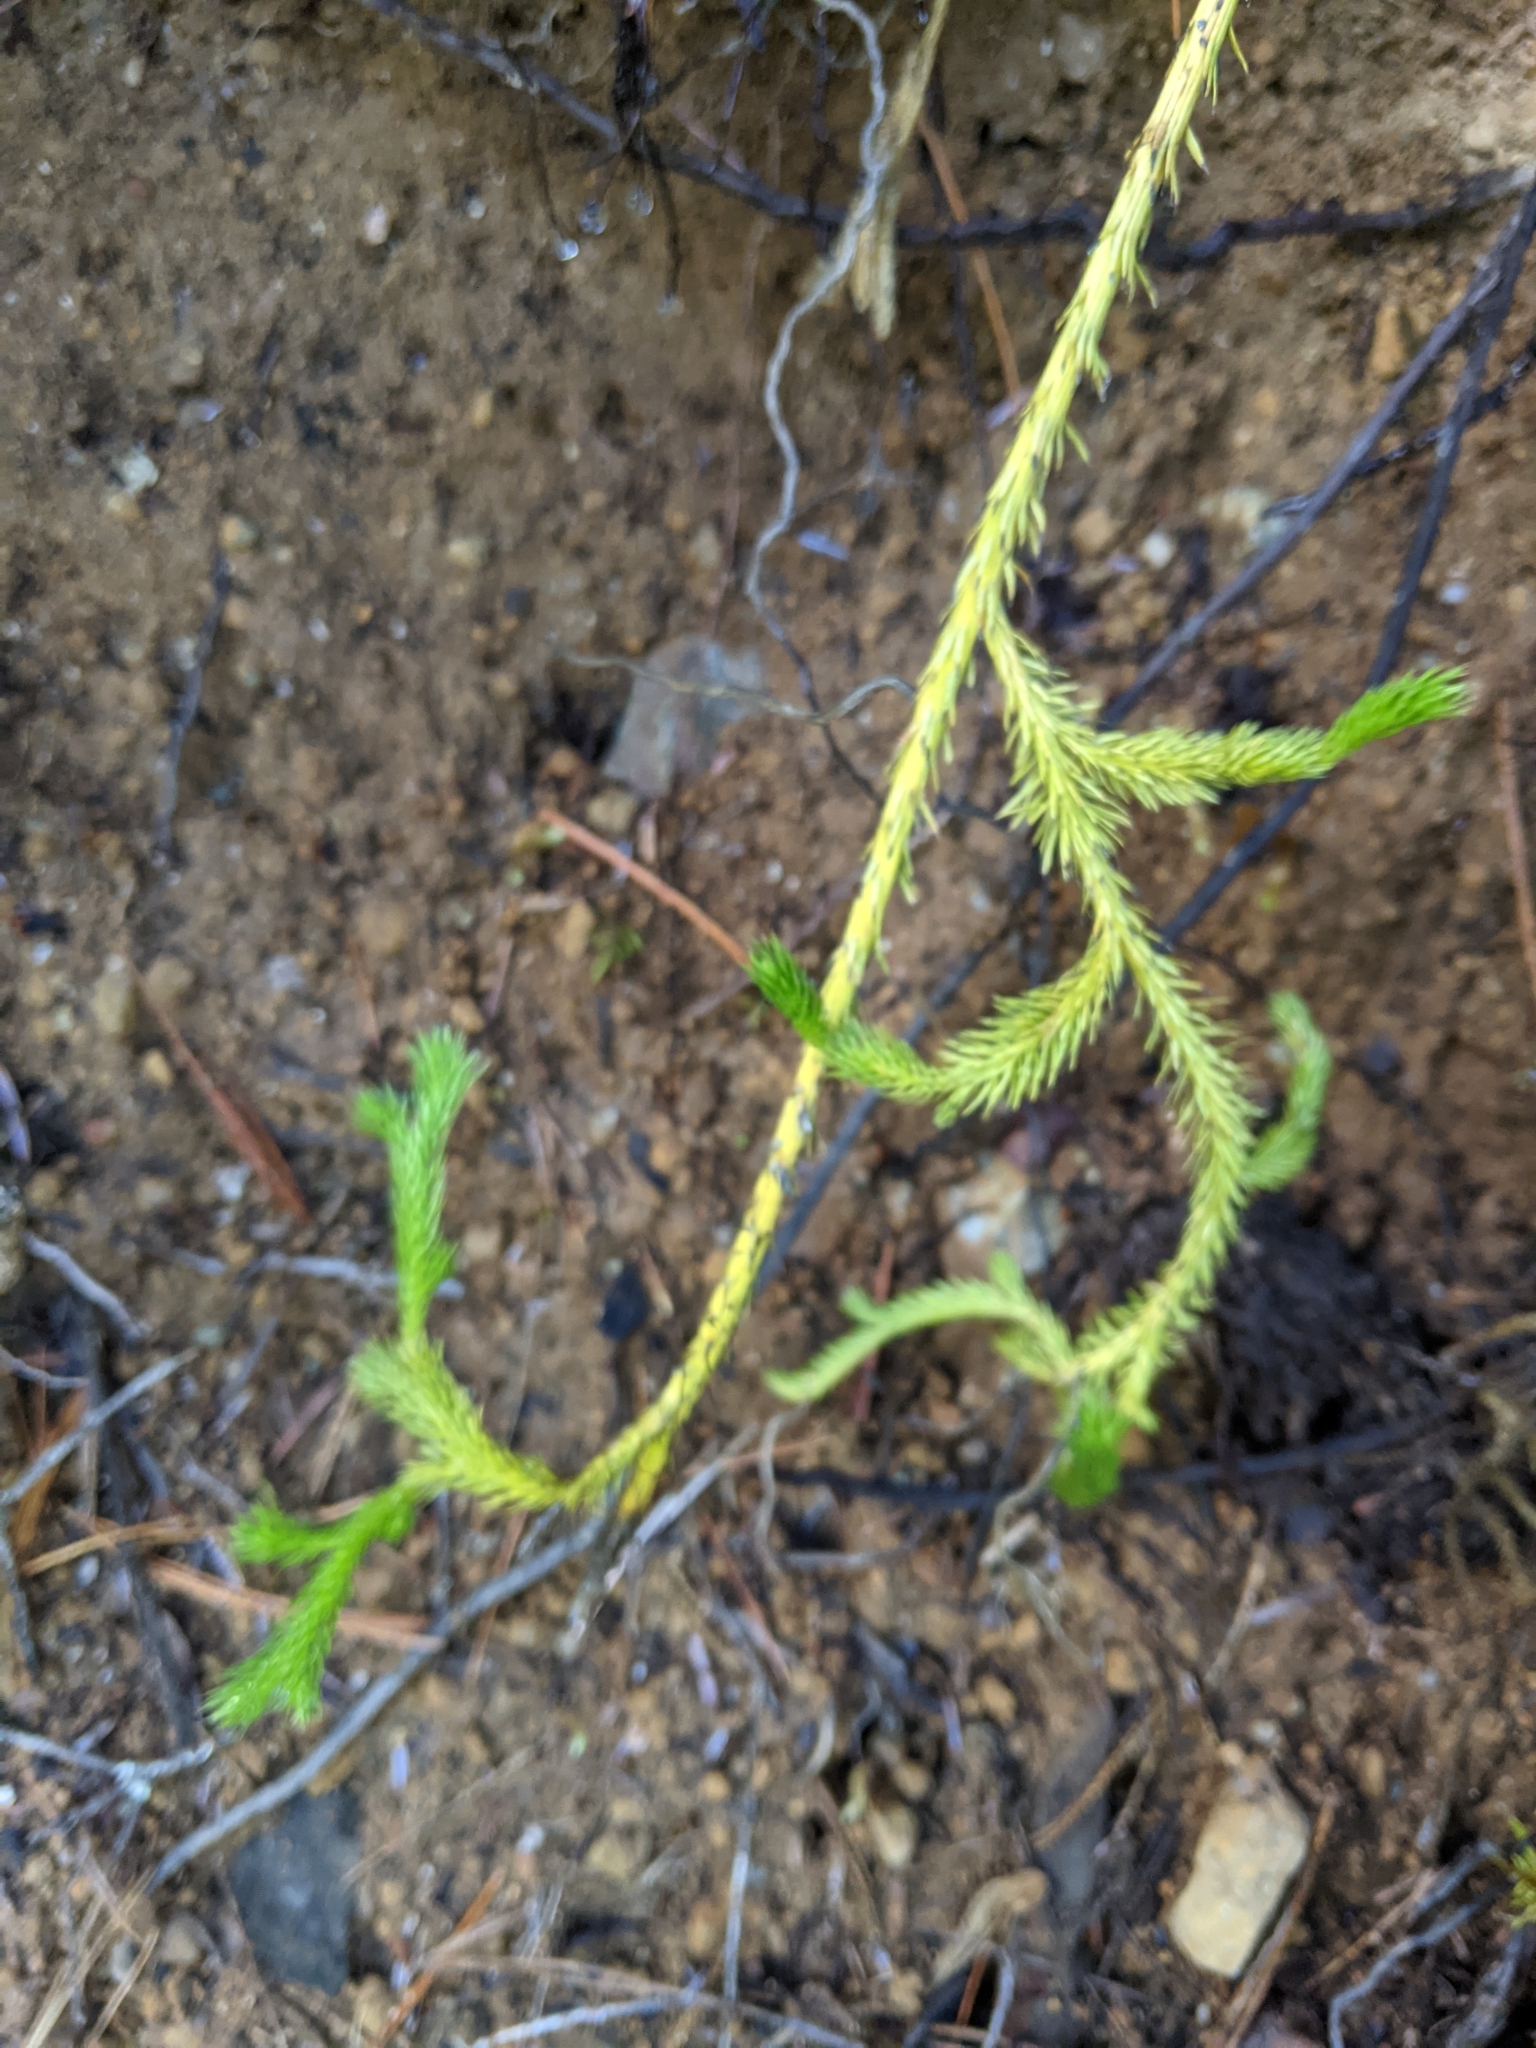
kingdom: Plantae
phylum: Tracheophyta
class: Lycopodiopsida
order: Lycopodiales
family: Lycopodiaceae
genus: Lycopodium
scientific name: Lycopodium clavatum
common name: Stag's-horn clubmoss
